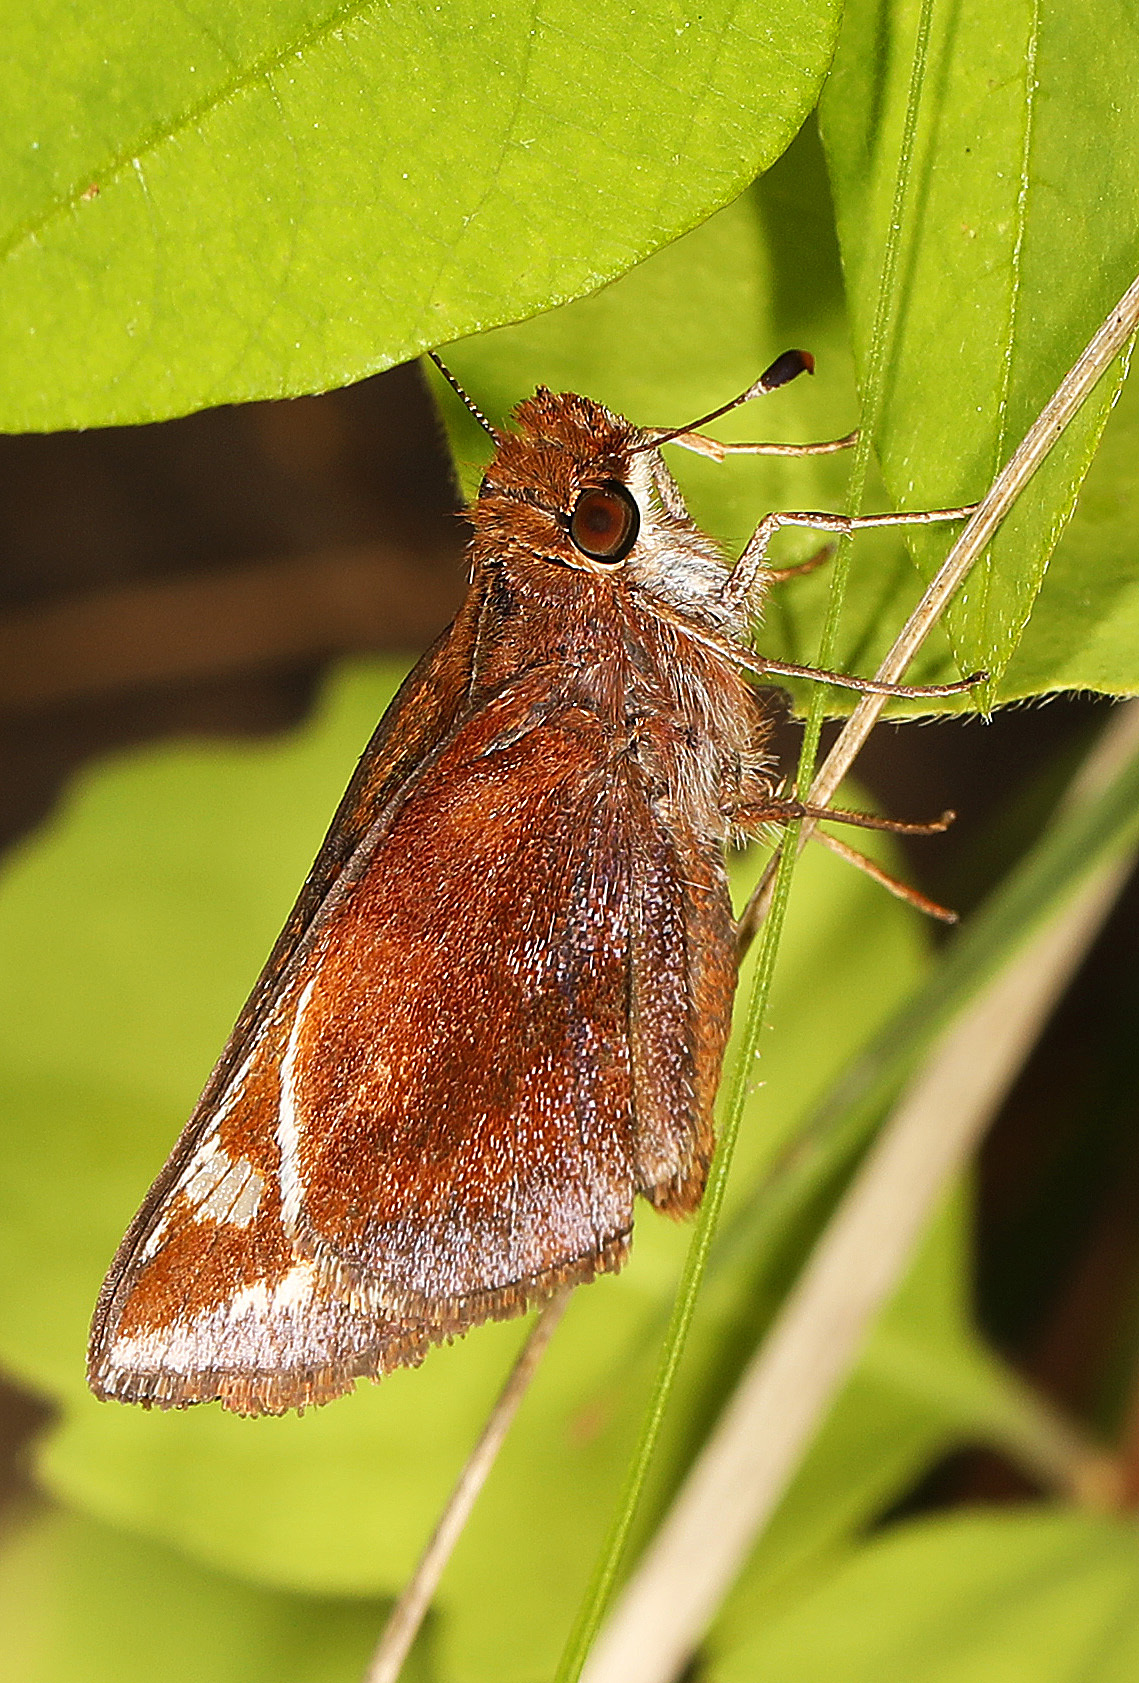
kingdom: Animalia
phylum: Arthropoda
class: Insecta
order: Lepidoptera
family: Hesperiidae
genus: Lon
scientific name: Lon zabulon
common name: Zabulon skipper
